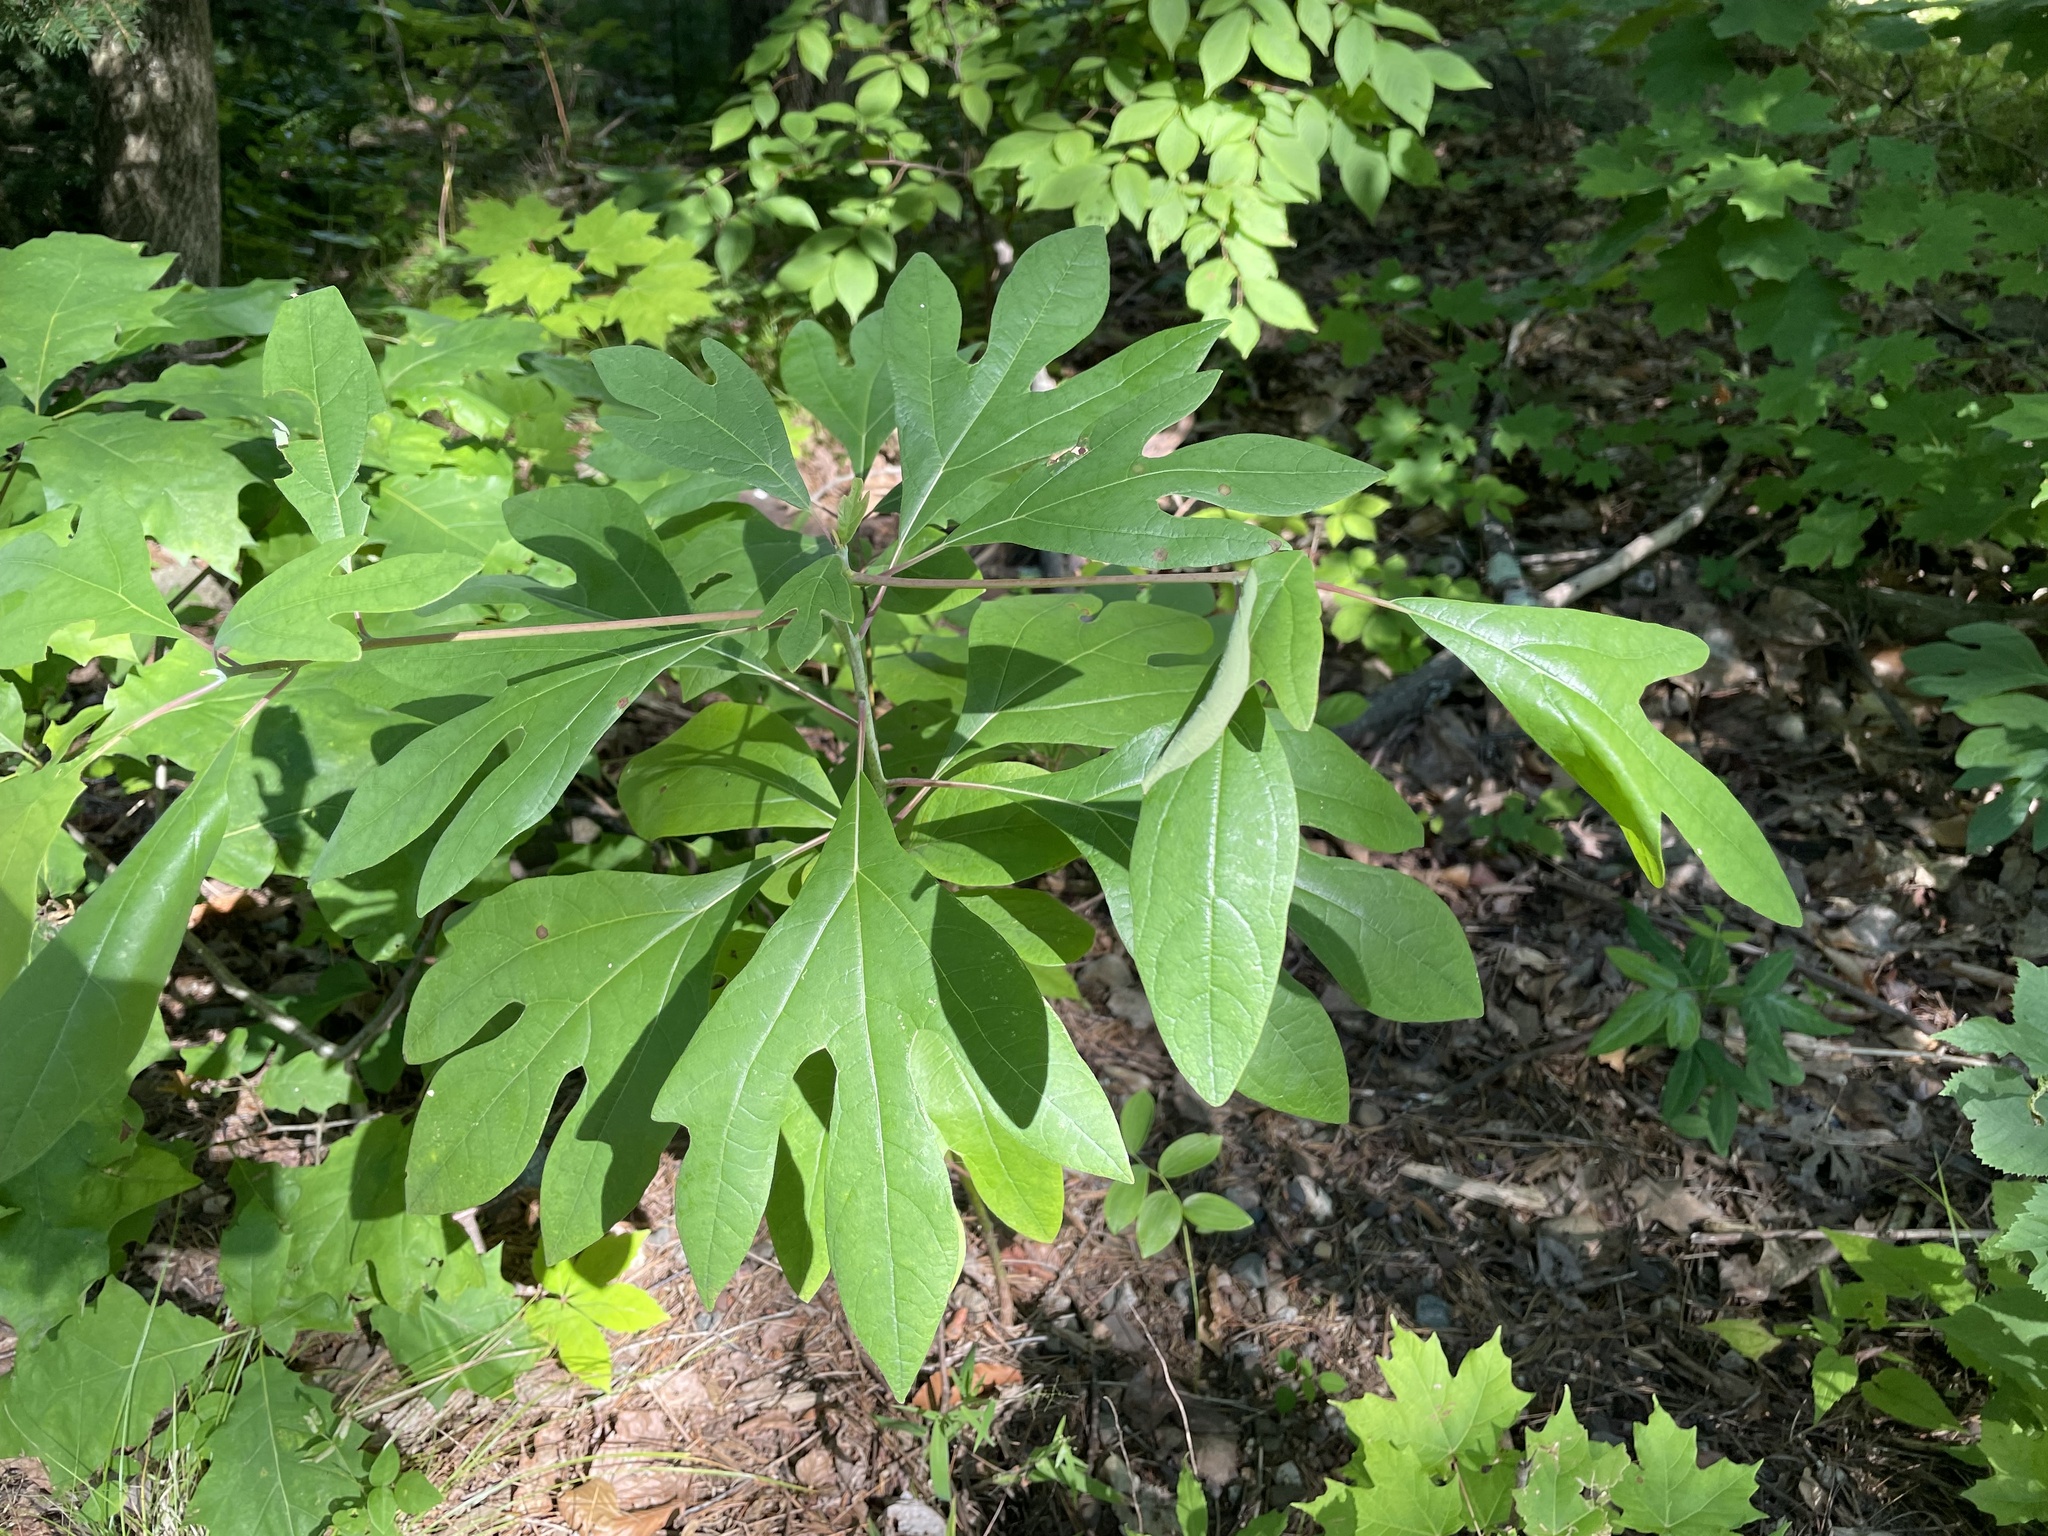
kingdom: Plantae
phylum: Tracheophyta
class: Magnoliopsida
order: Laurales
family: Lauraceae
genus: Sassafras
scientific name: Sassafras albidum
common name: Sassafras
